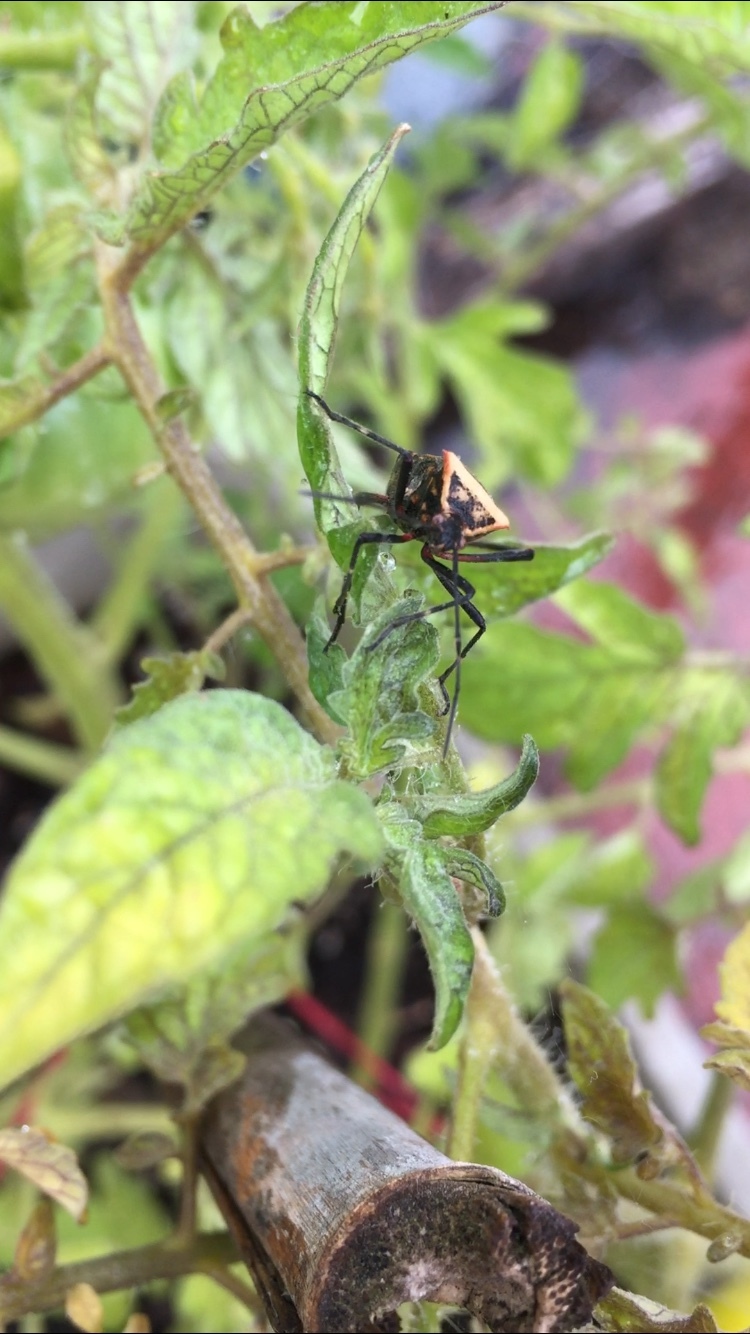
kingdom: Animalia
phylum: Arthropoda
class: Insecta
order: Hemiptera
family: Coreidae
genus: Phthiacnemia
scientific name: Phthiacnemia picta
